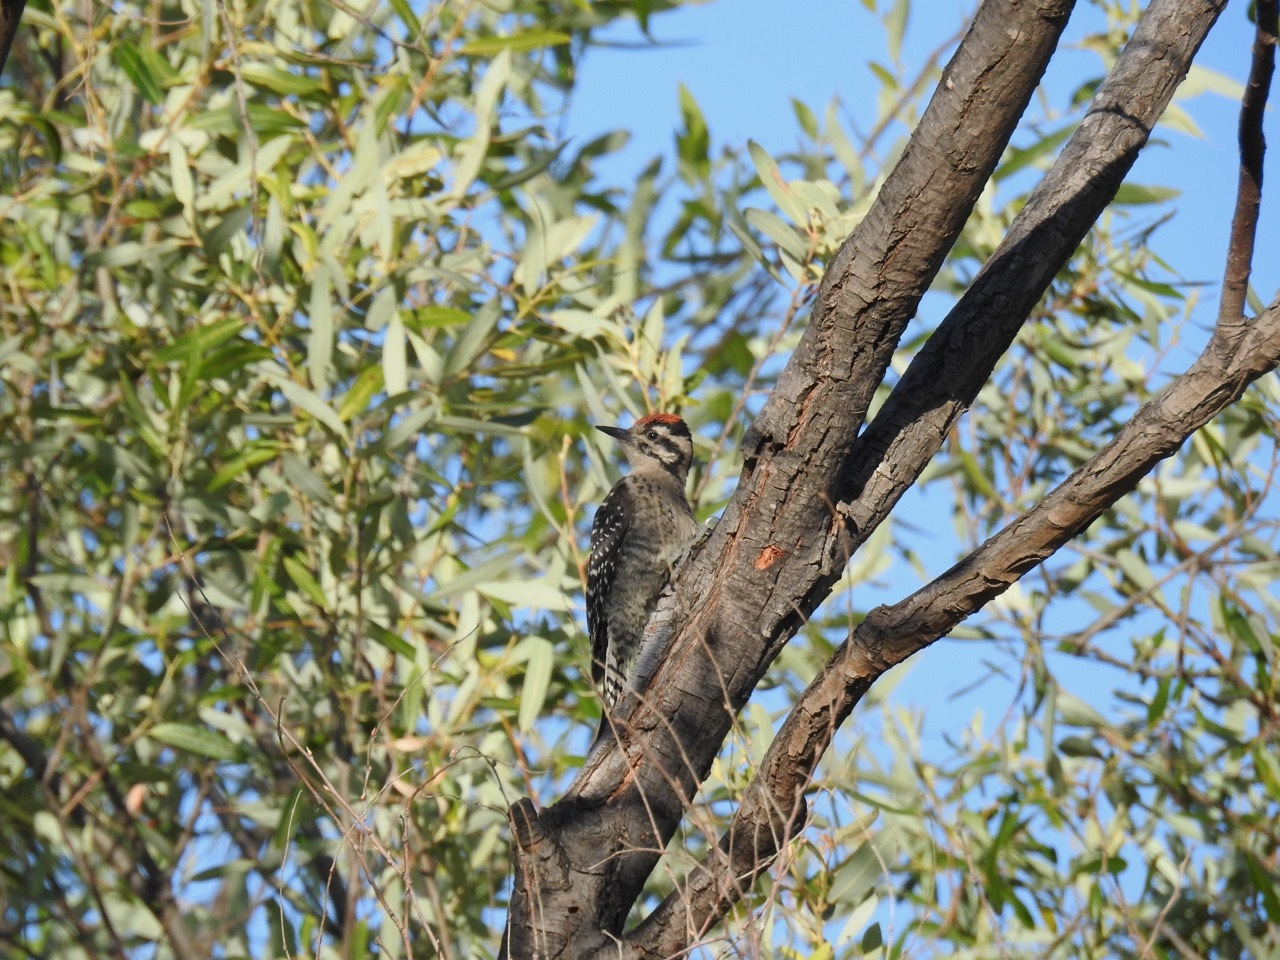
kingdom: Animalia
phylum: Chordata
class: Aves
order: Piciformes
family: Picidae
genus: Dryobates
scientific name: Dryobates scalaris
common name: Ladder-backed woodpecker
